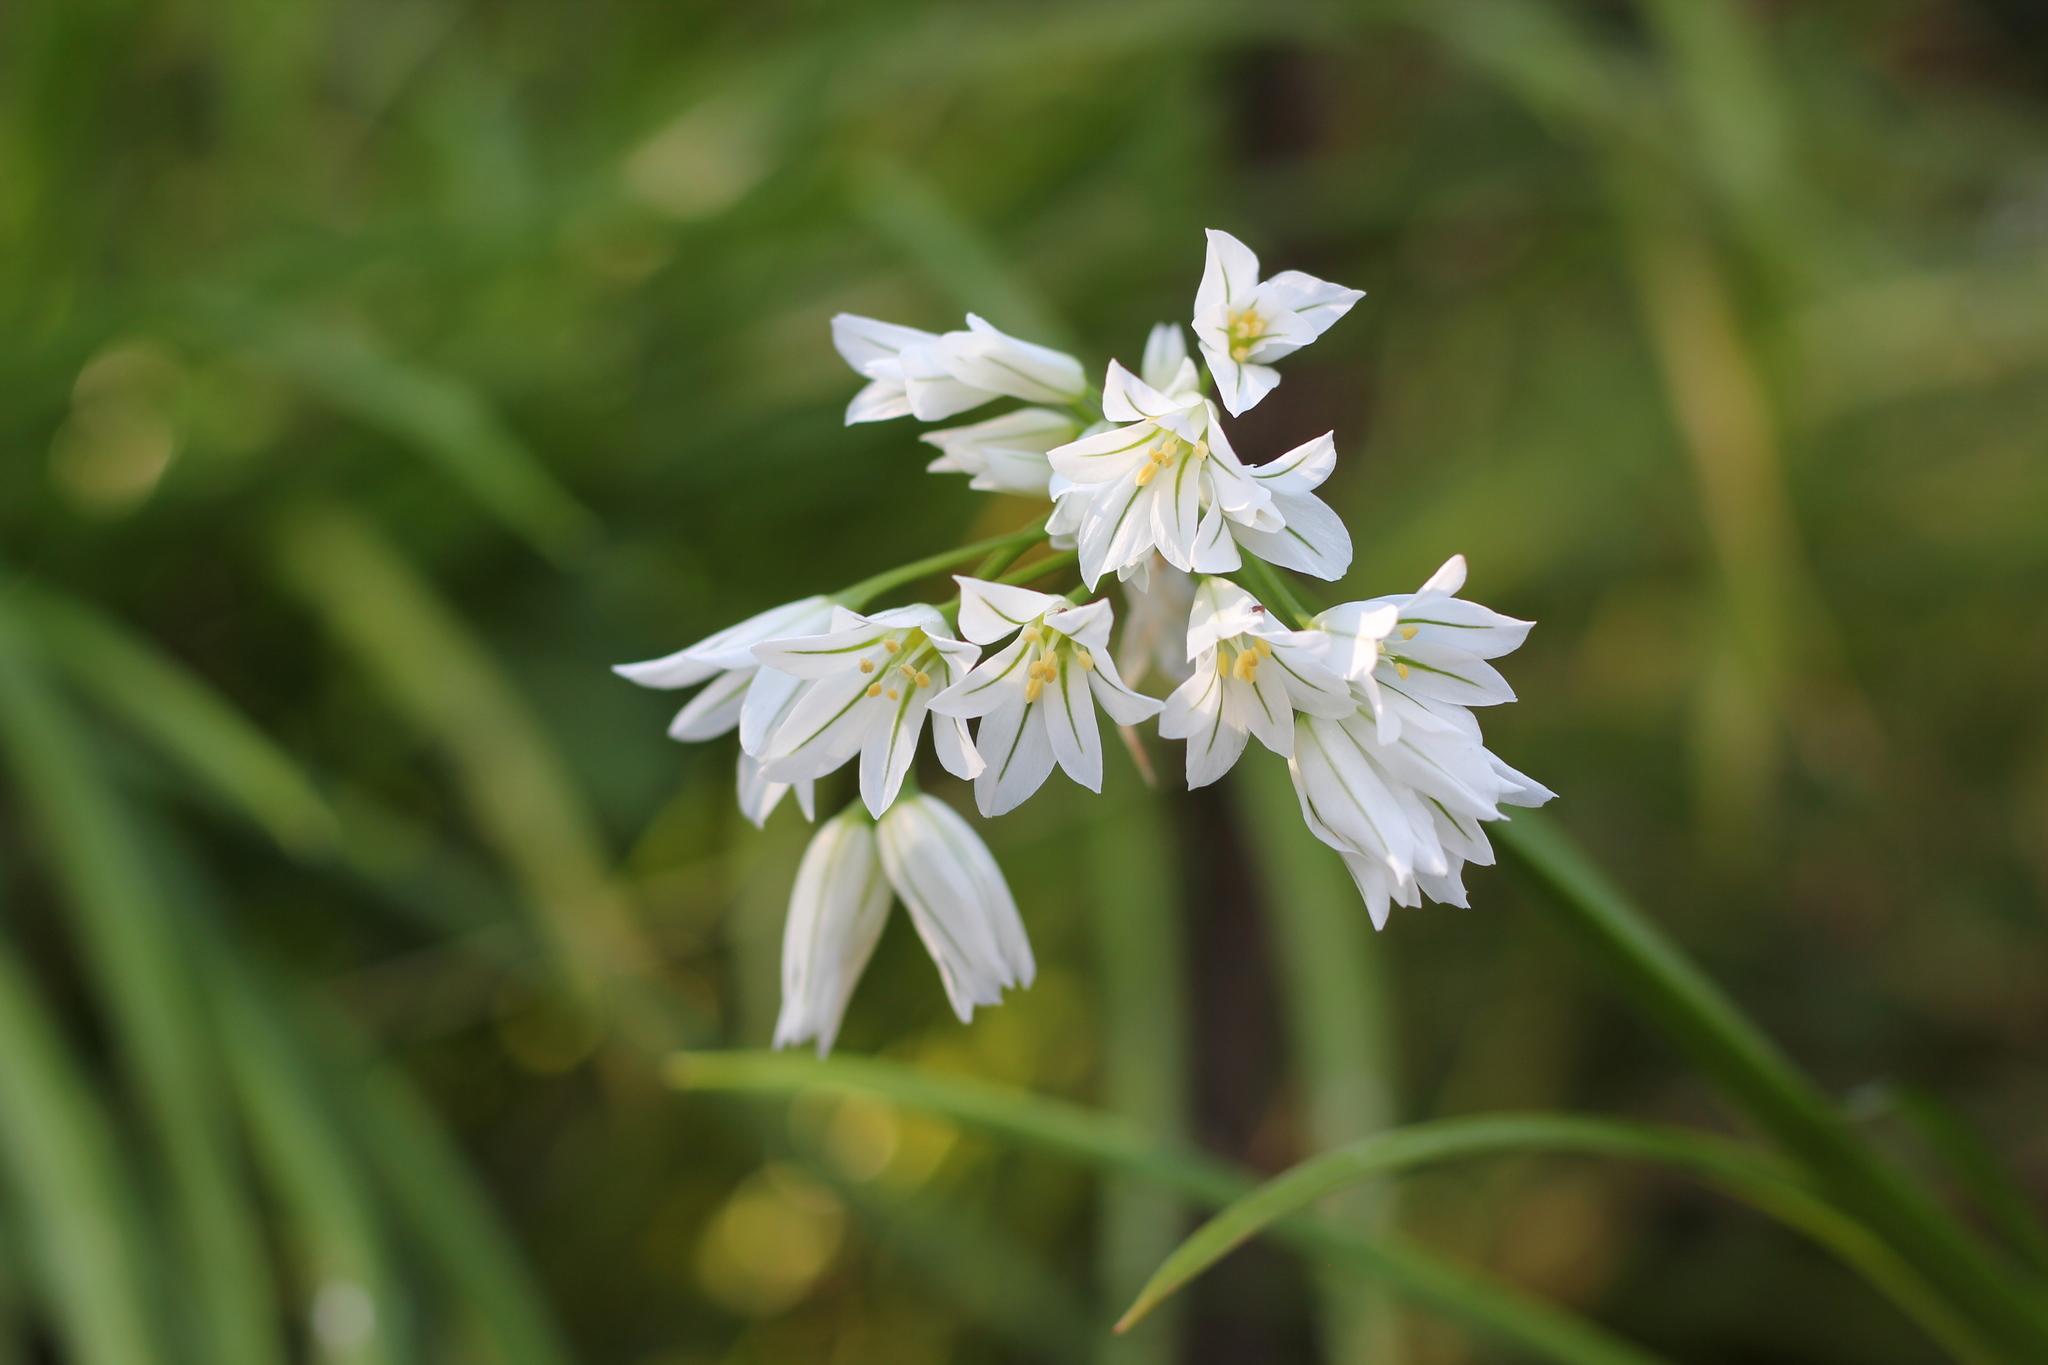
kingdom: Plantae
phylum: Tracheophyta
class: Liliopsida
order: Asparagales
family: Amaryllidaceae
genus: Allium
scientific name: Allium triquetrum
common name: Three-cornered garlic
